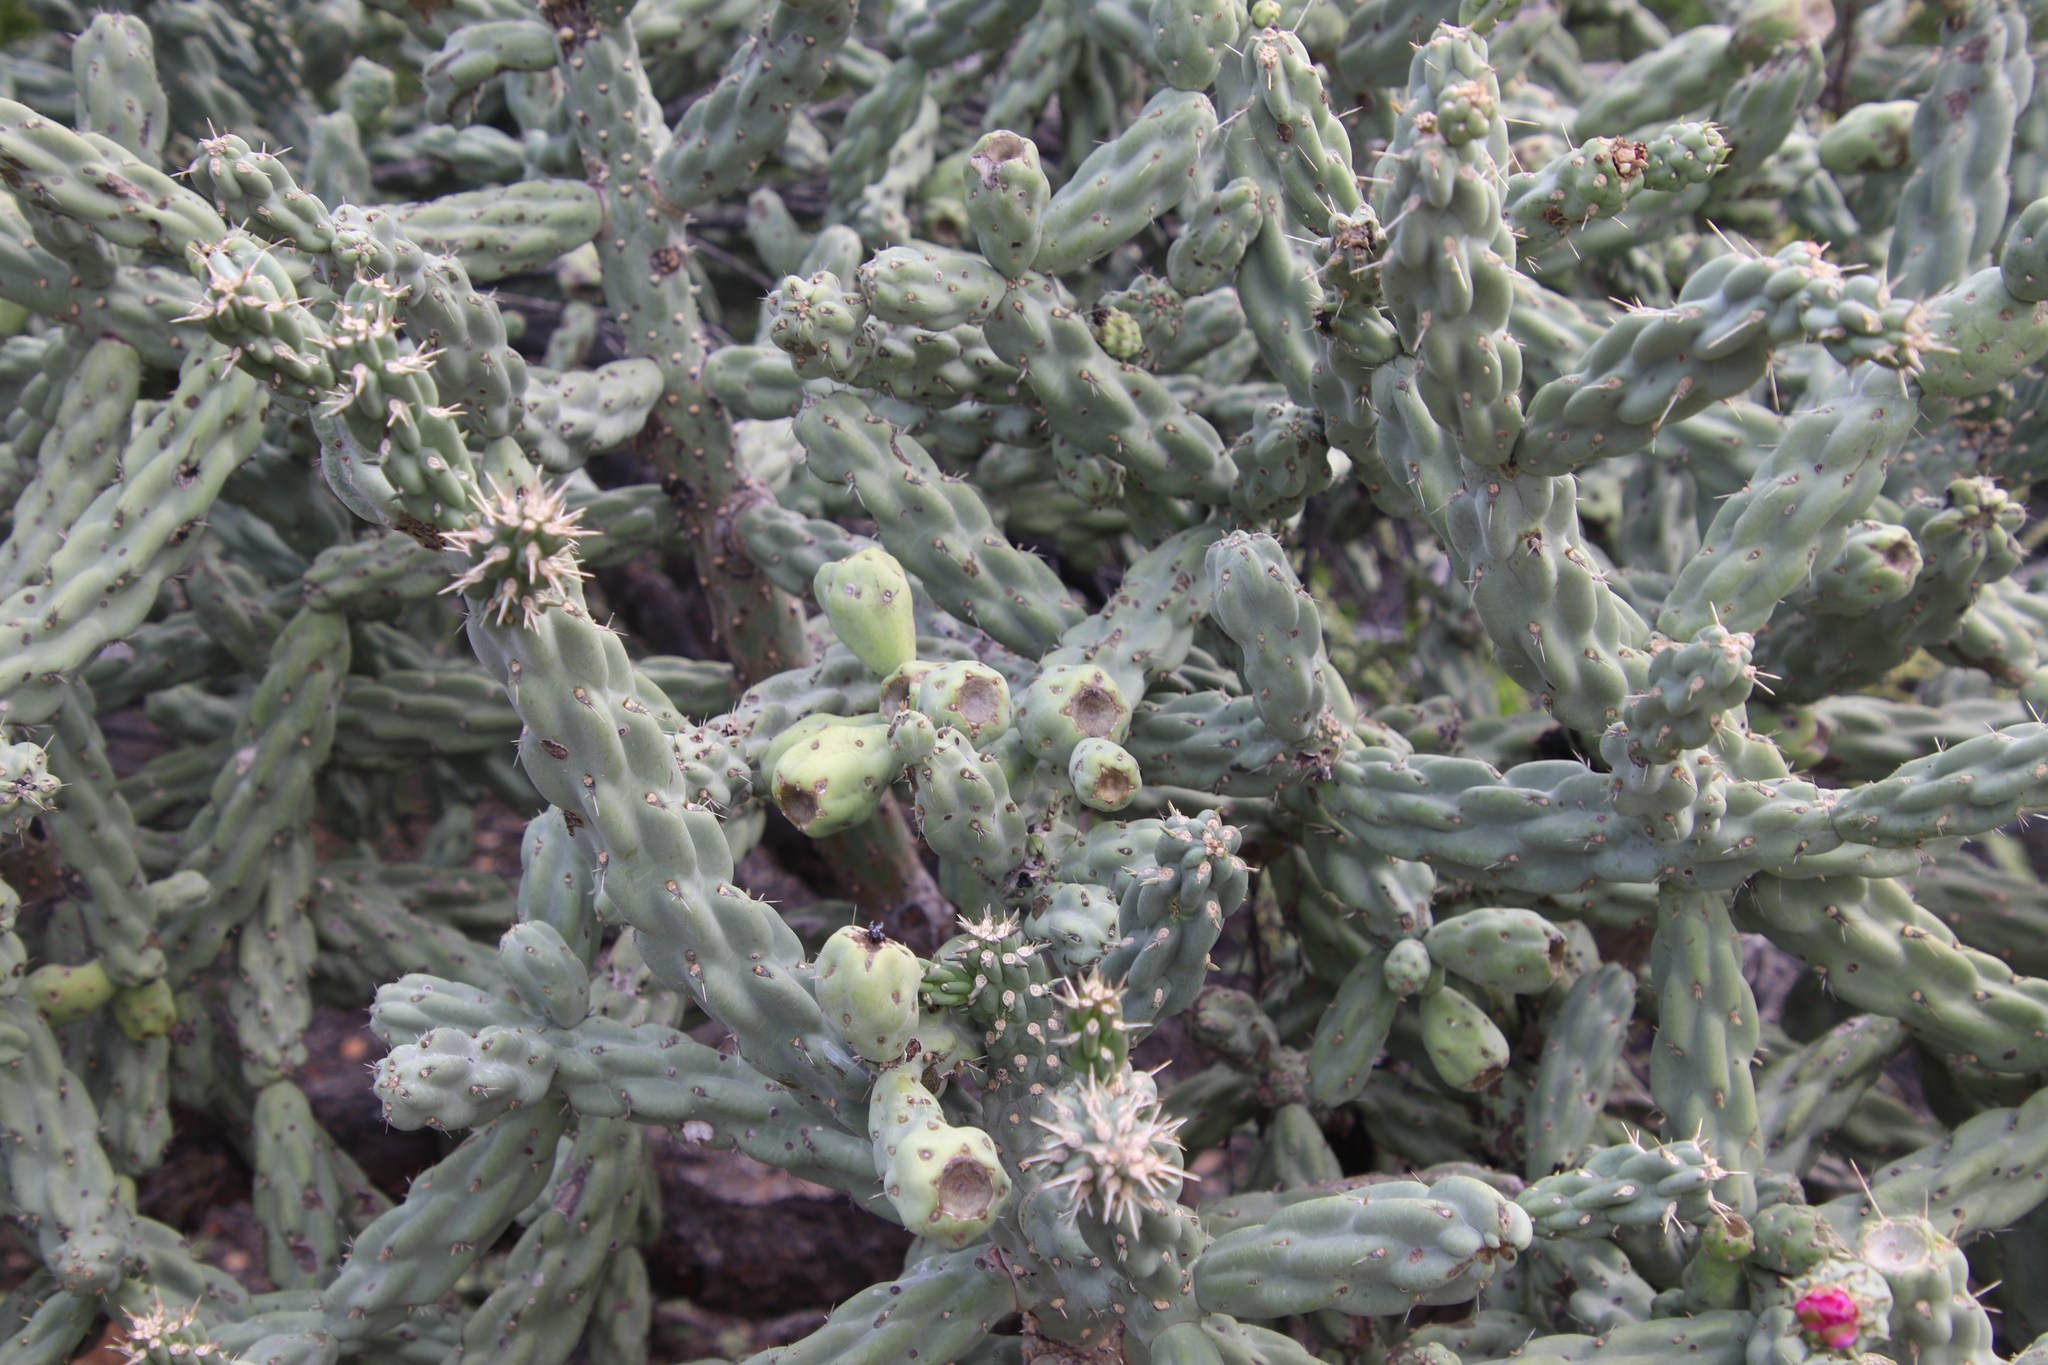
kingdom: Plantae
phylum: Tracheophyta
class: Magnoliopsida
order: Caryophyllales
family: Cactaceae
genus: Cylindropuntia
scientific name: Cylindropuntia cholla
